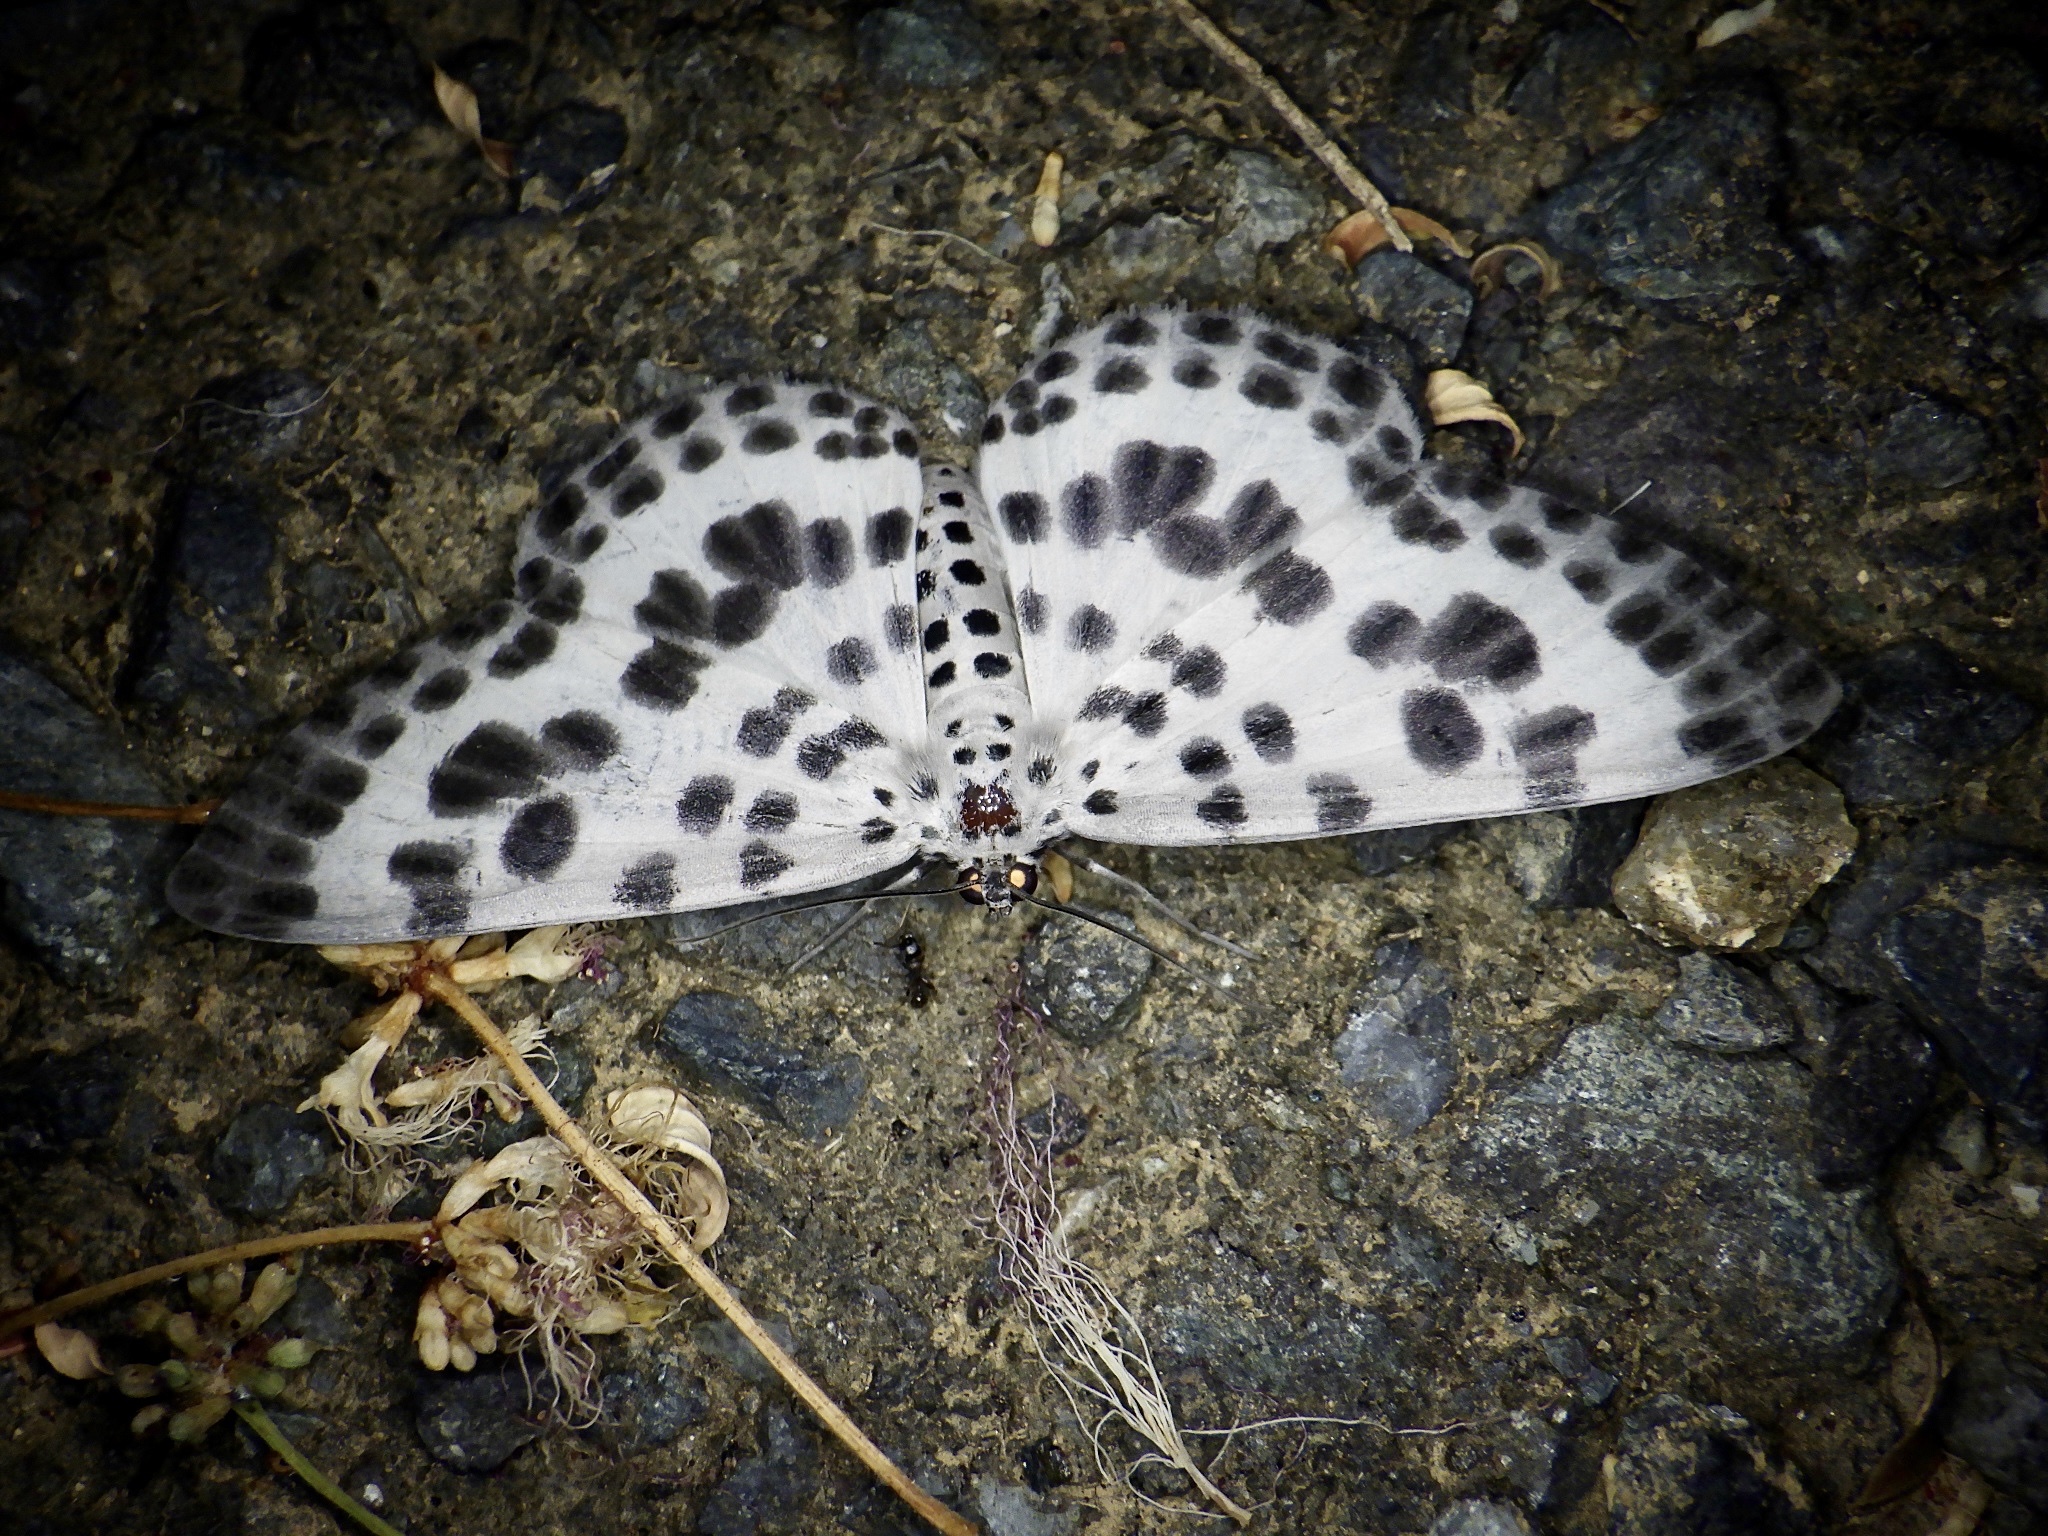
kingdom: Animalia
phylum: Arthropoda
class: Insecta
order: Lepidoptera
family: Geometridae
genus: Antipercnia
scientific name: Antipercnia albinigrata
